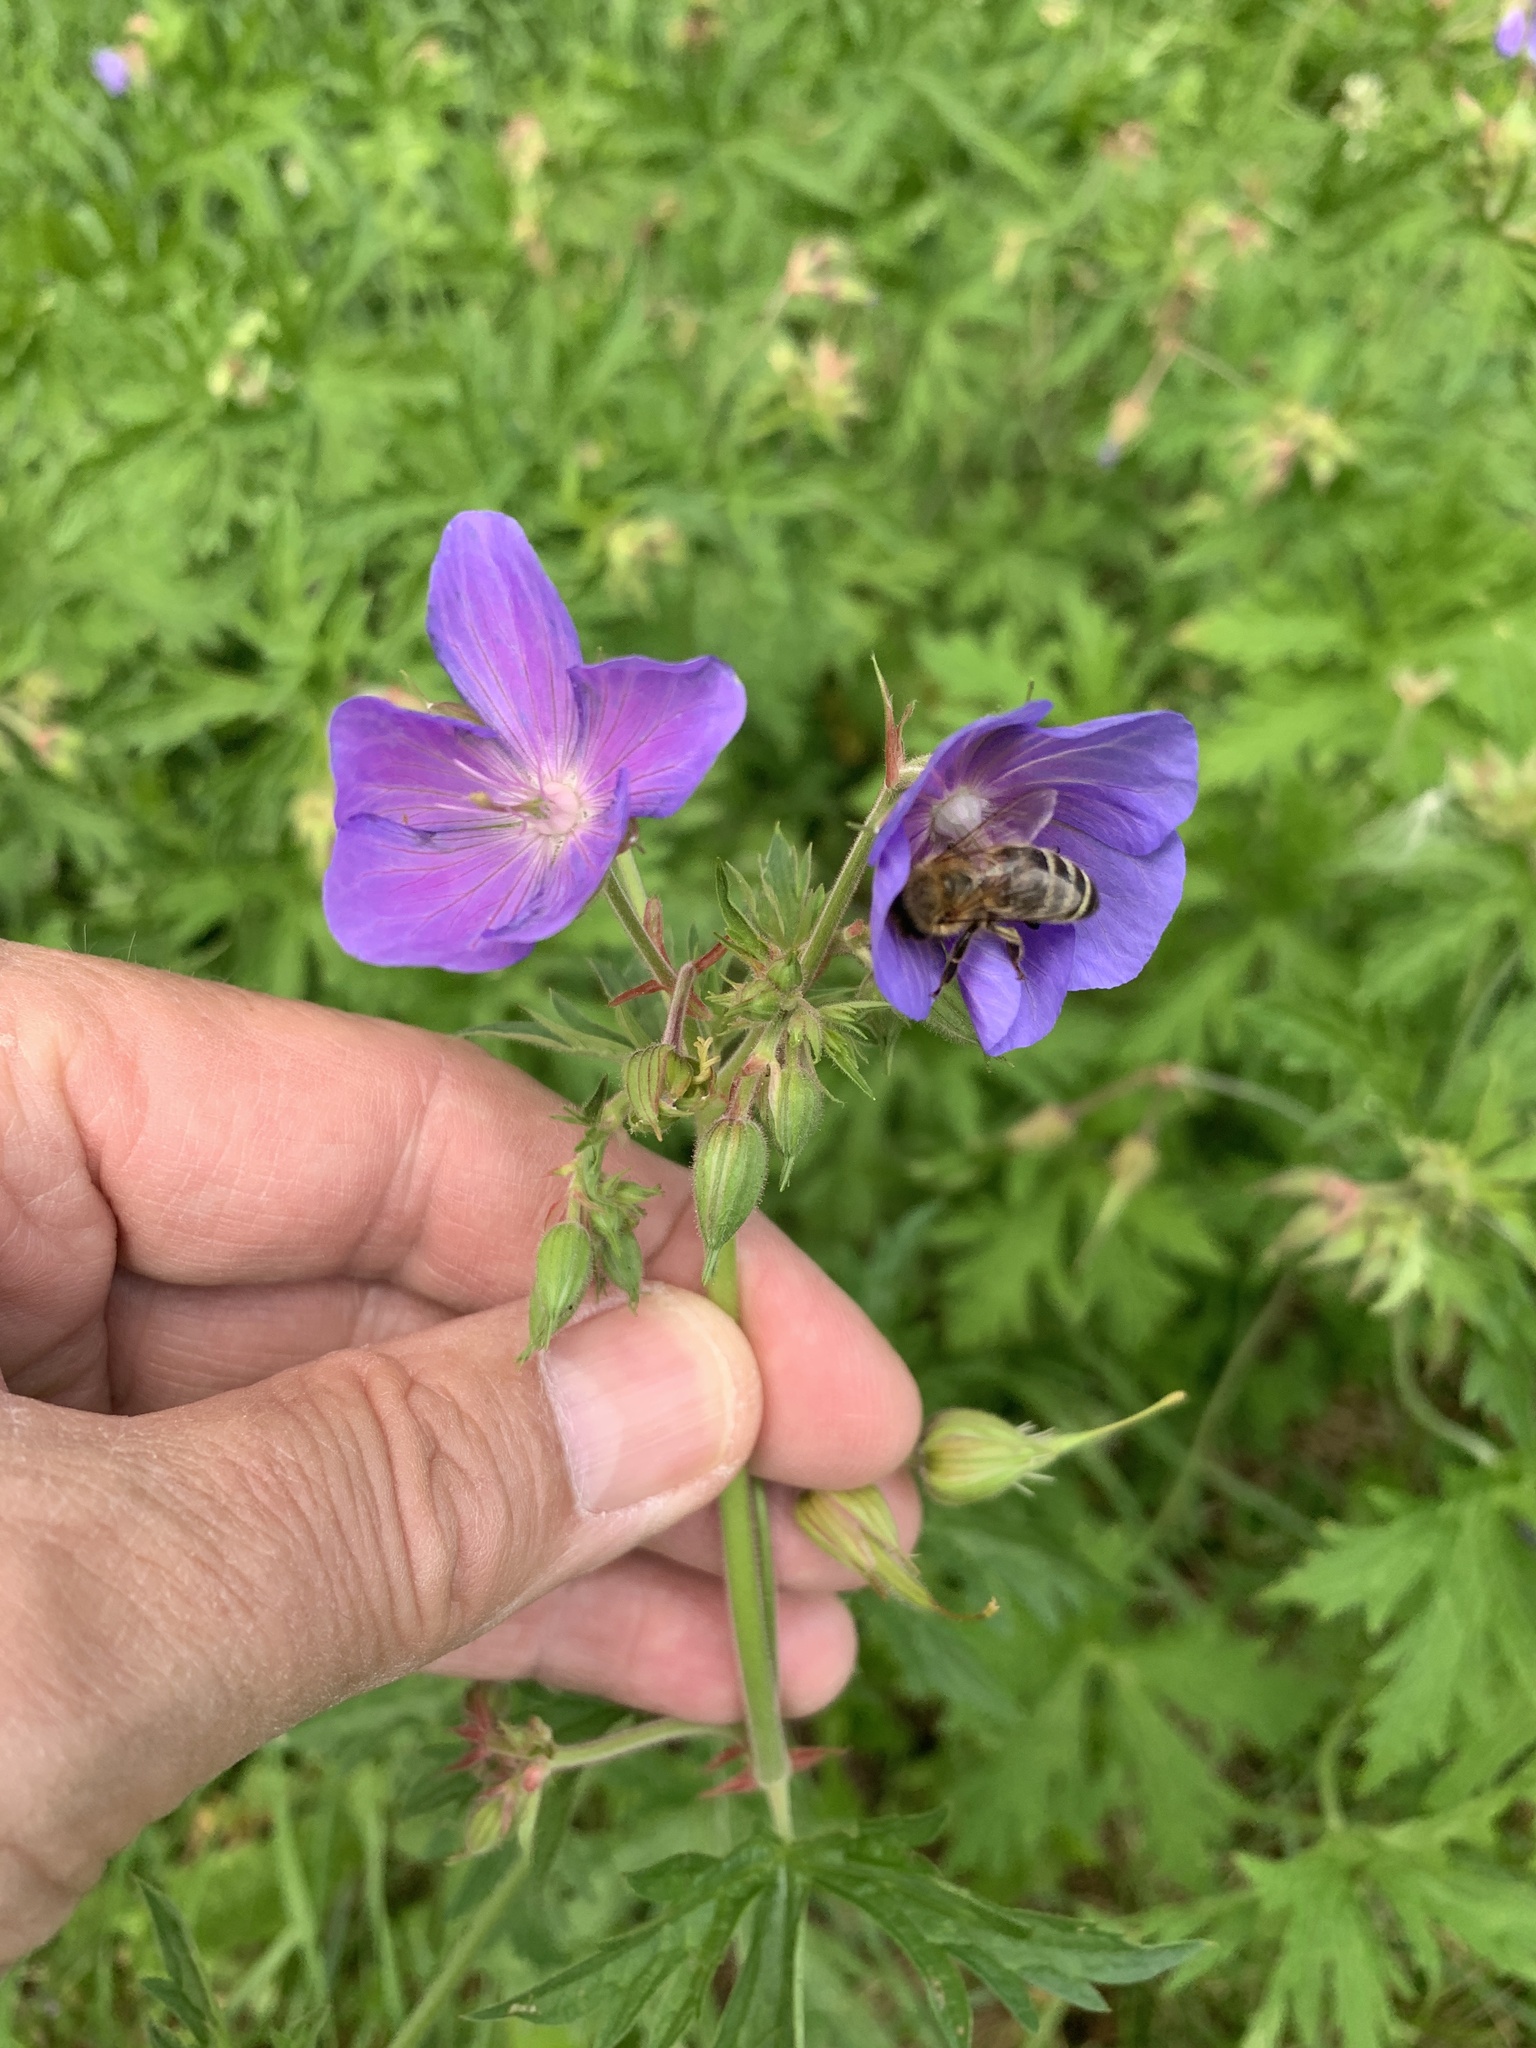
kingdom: Plantae
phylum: Tracheophyta
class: Magnoliopsida
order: Geraniales
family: Geraniaceae
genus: Geranium
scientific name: Geranium pratense
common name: Meadow crane's-bill
